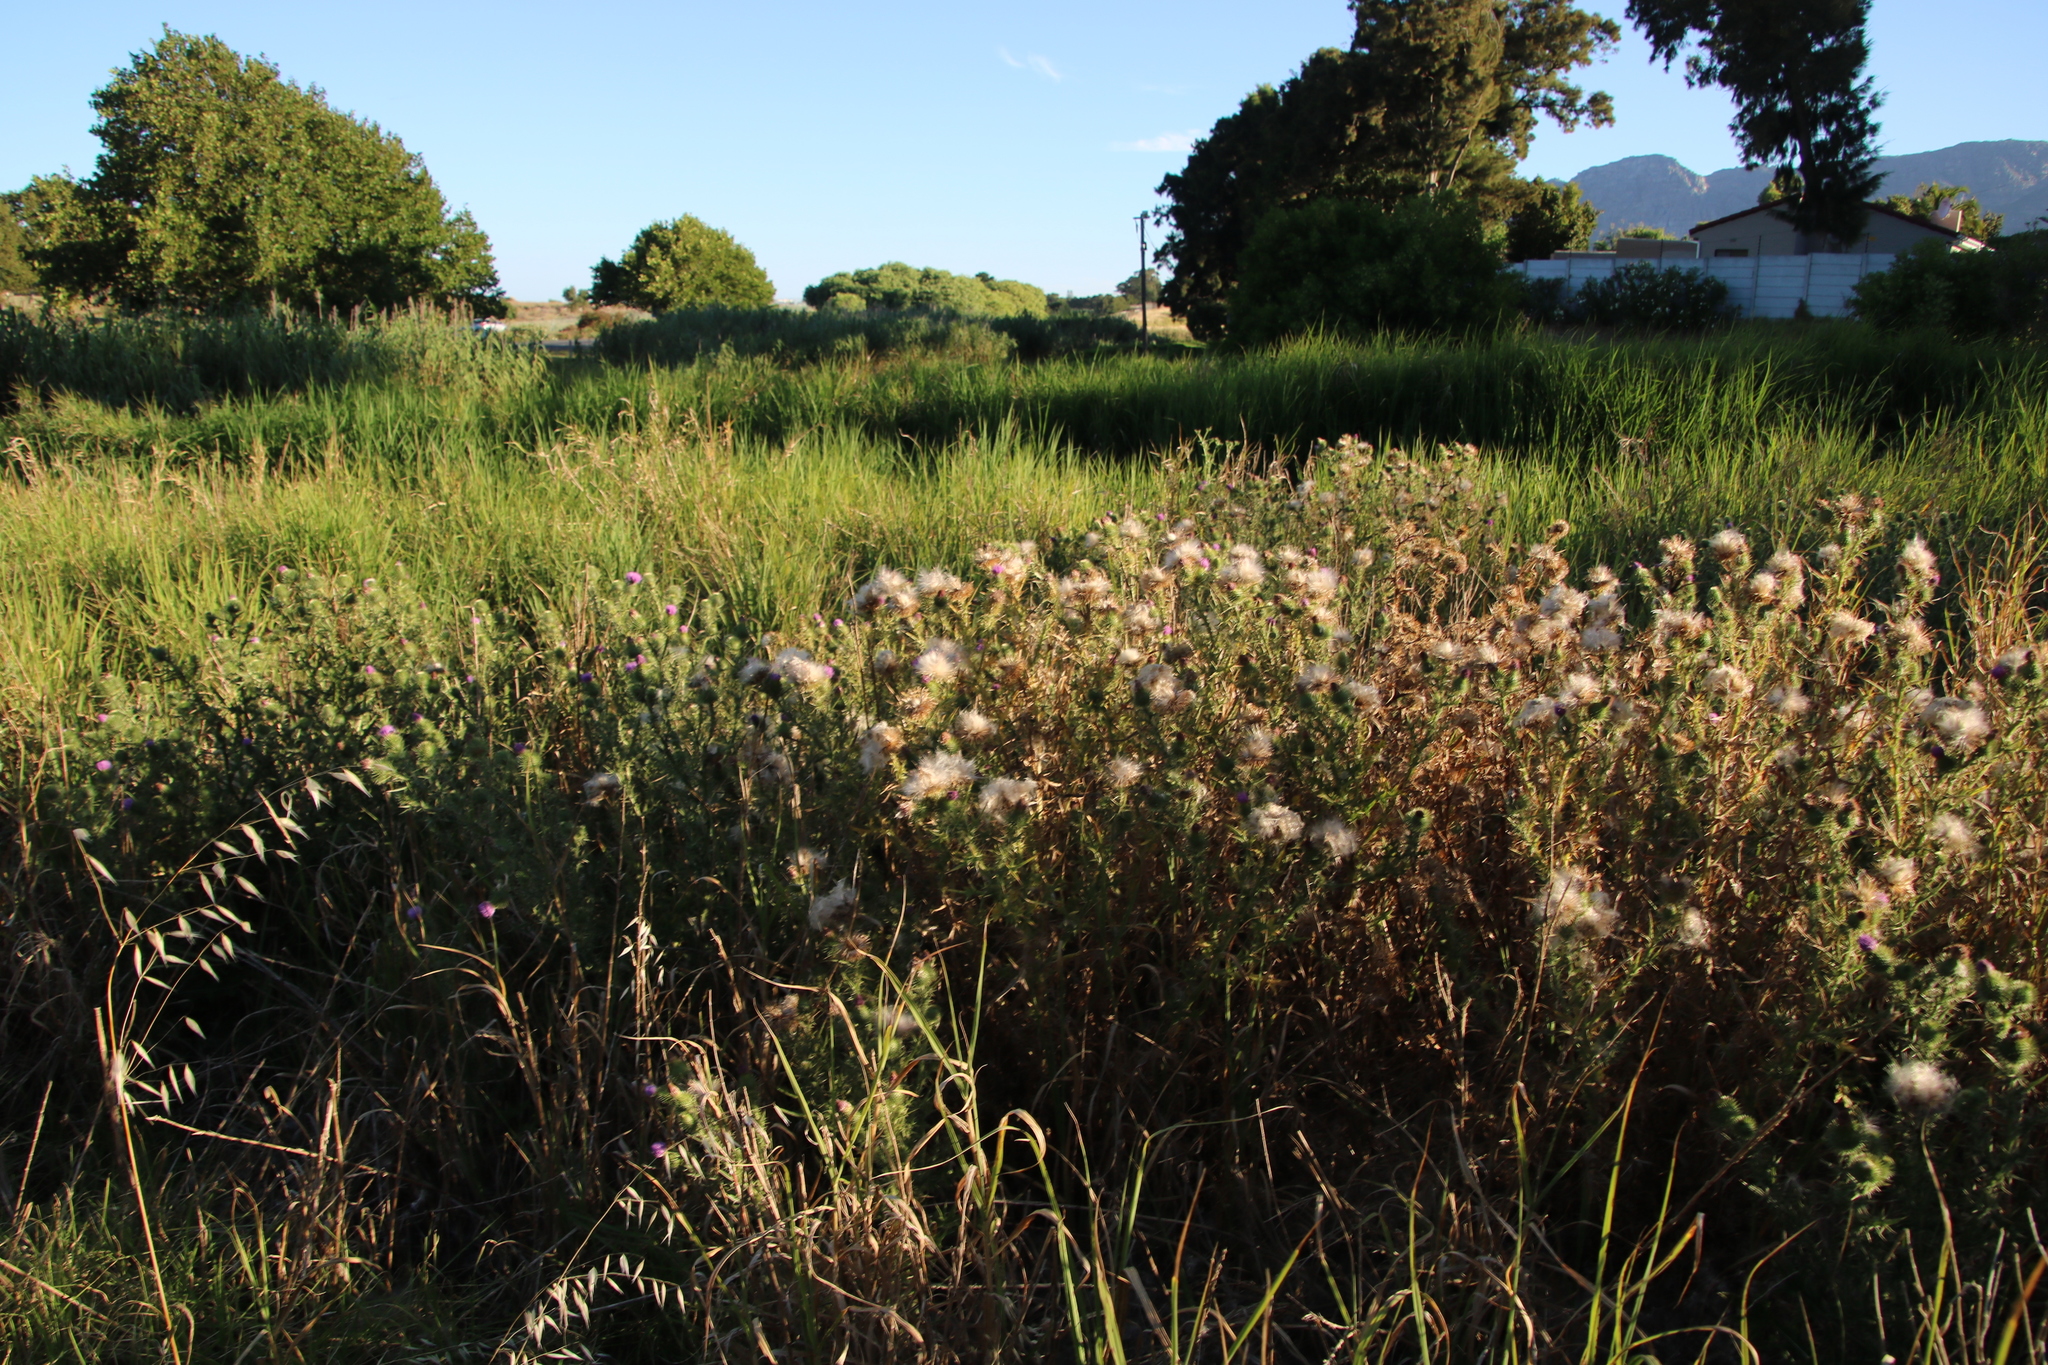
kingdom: Plantae
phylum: Tracheophyta
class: Magnoliopsida
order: Asterales
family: Asteraceae
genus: Cirsium
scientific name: Cirsium vulgare
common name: Bull thistle
